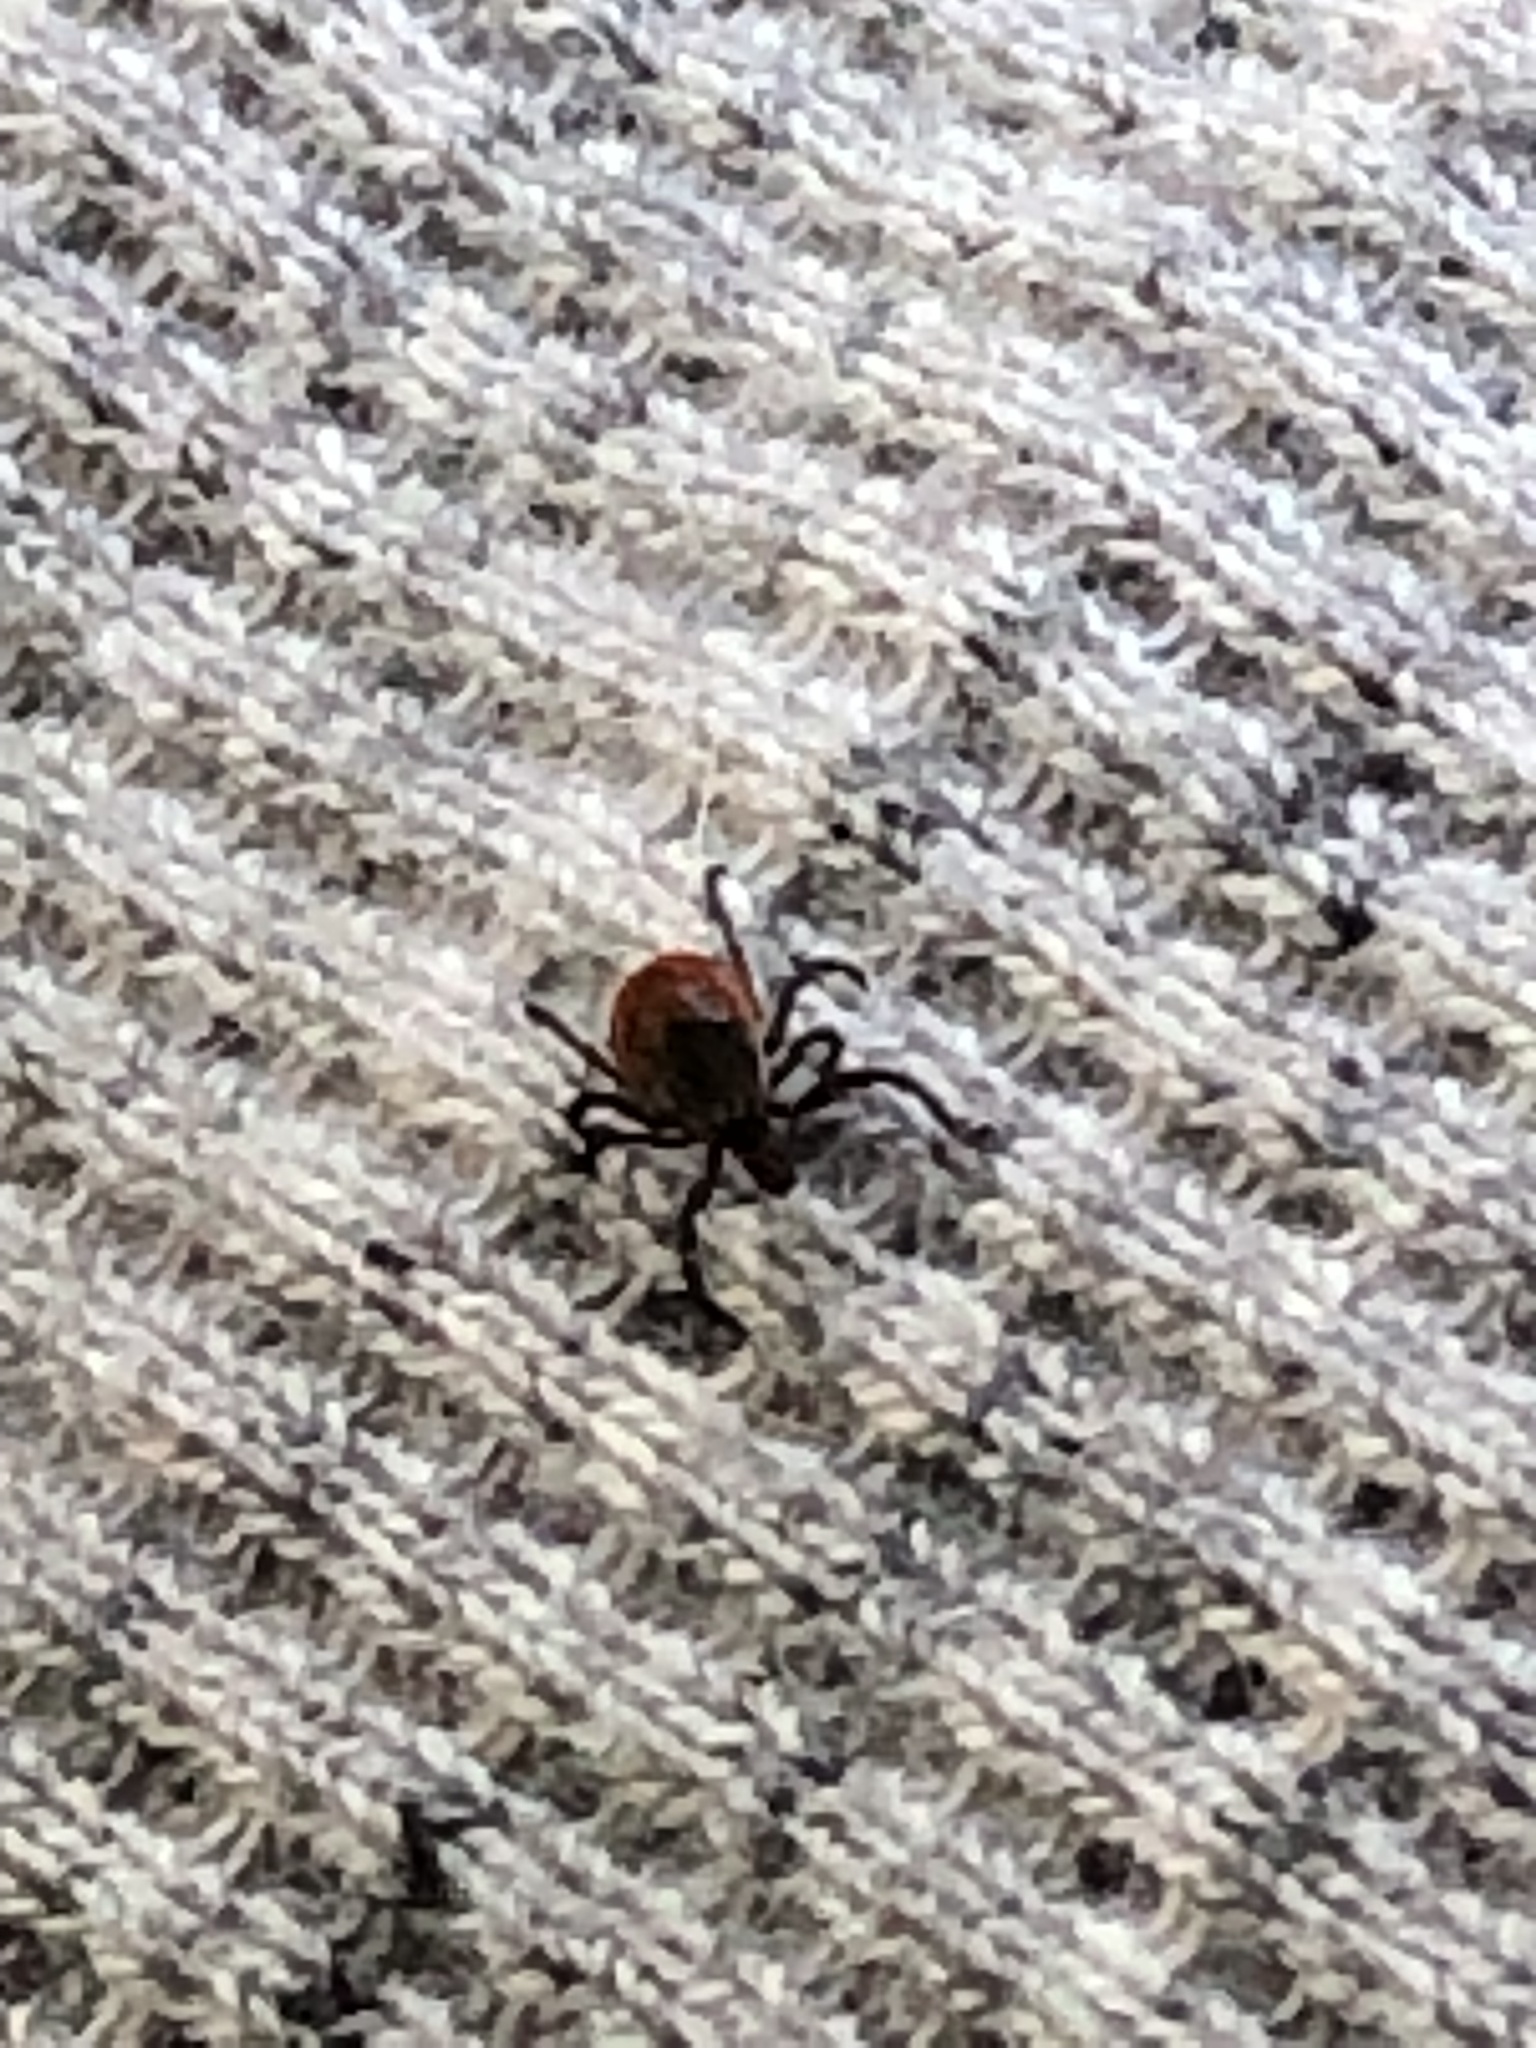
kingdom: Animalia
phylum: Arthropoda
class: Arachnida
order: Ixodida
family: Ixodidae
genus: Ixodes
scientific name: Ixodes scapularis
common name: Black legged tick
